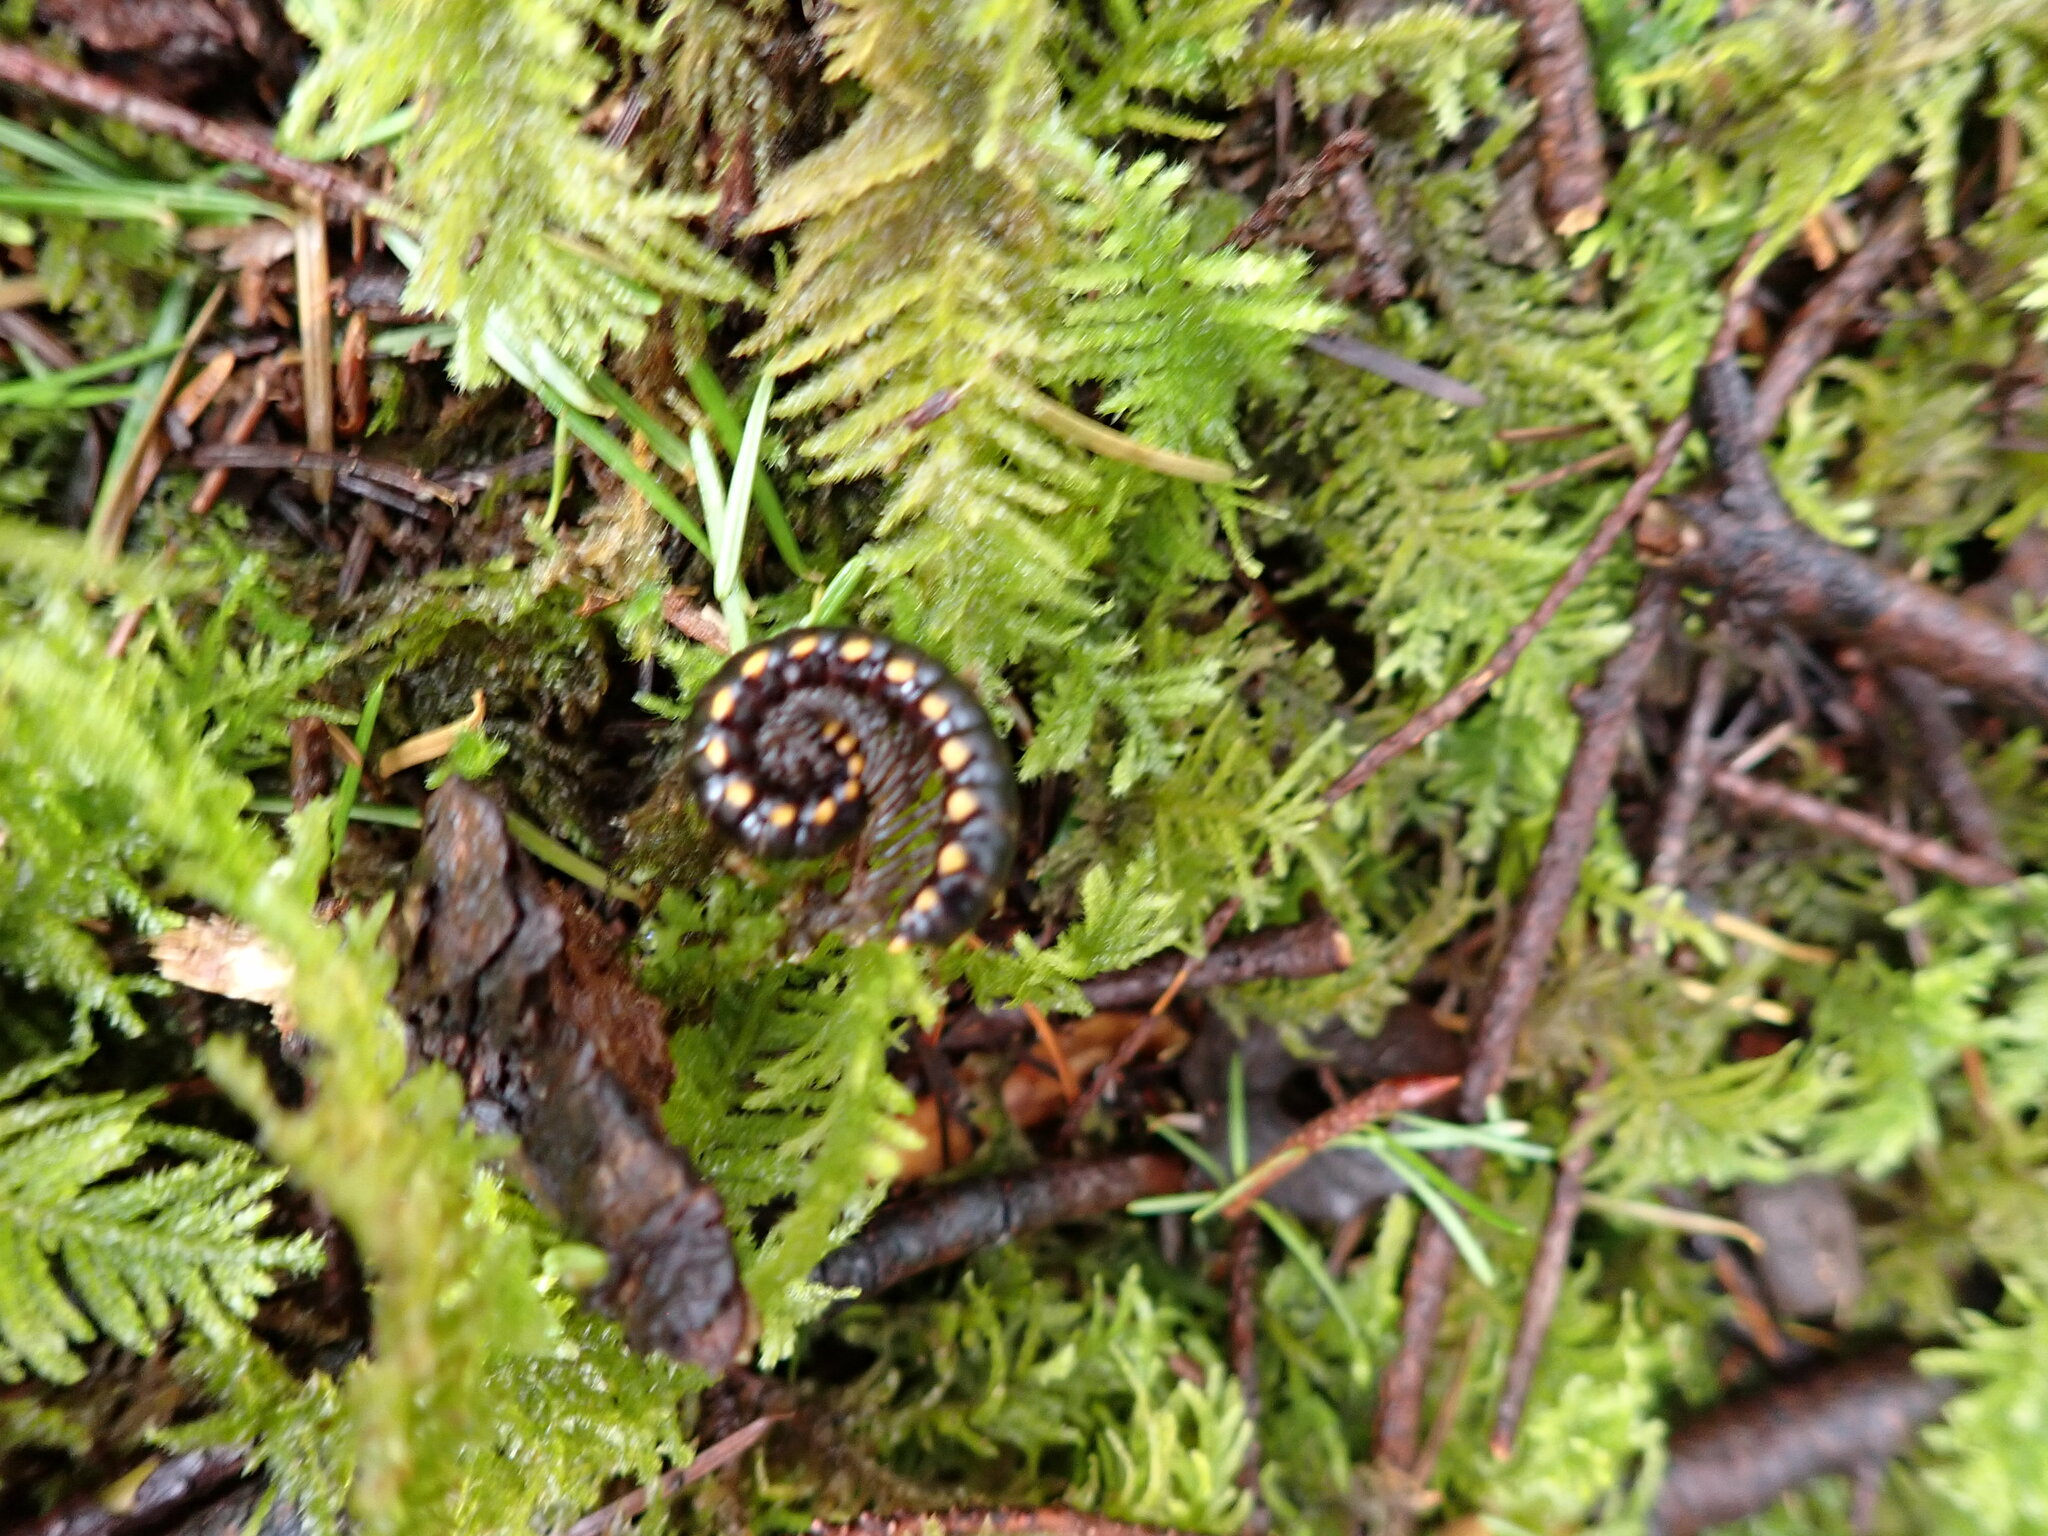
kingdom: Animalia
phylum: Arthropoda
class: Diplopoda
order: Polydesmida
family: Xystodesmidae
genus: Harpaphe
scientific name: Harpaphe haydeniana
